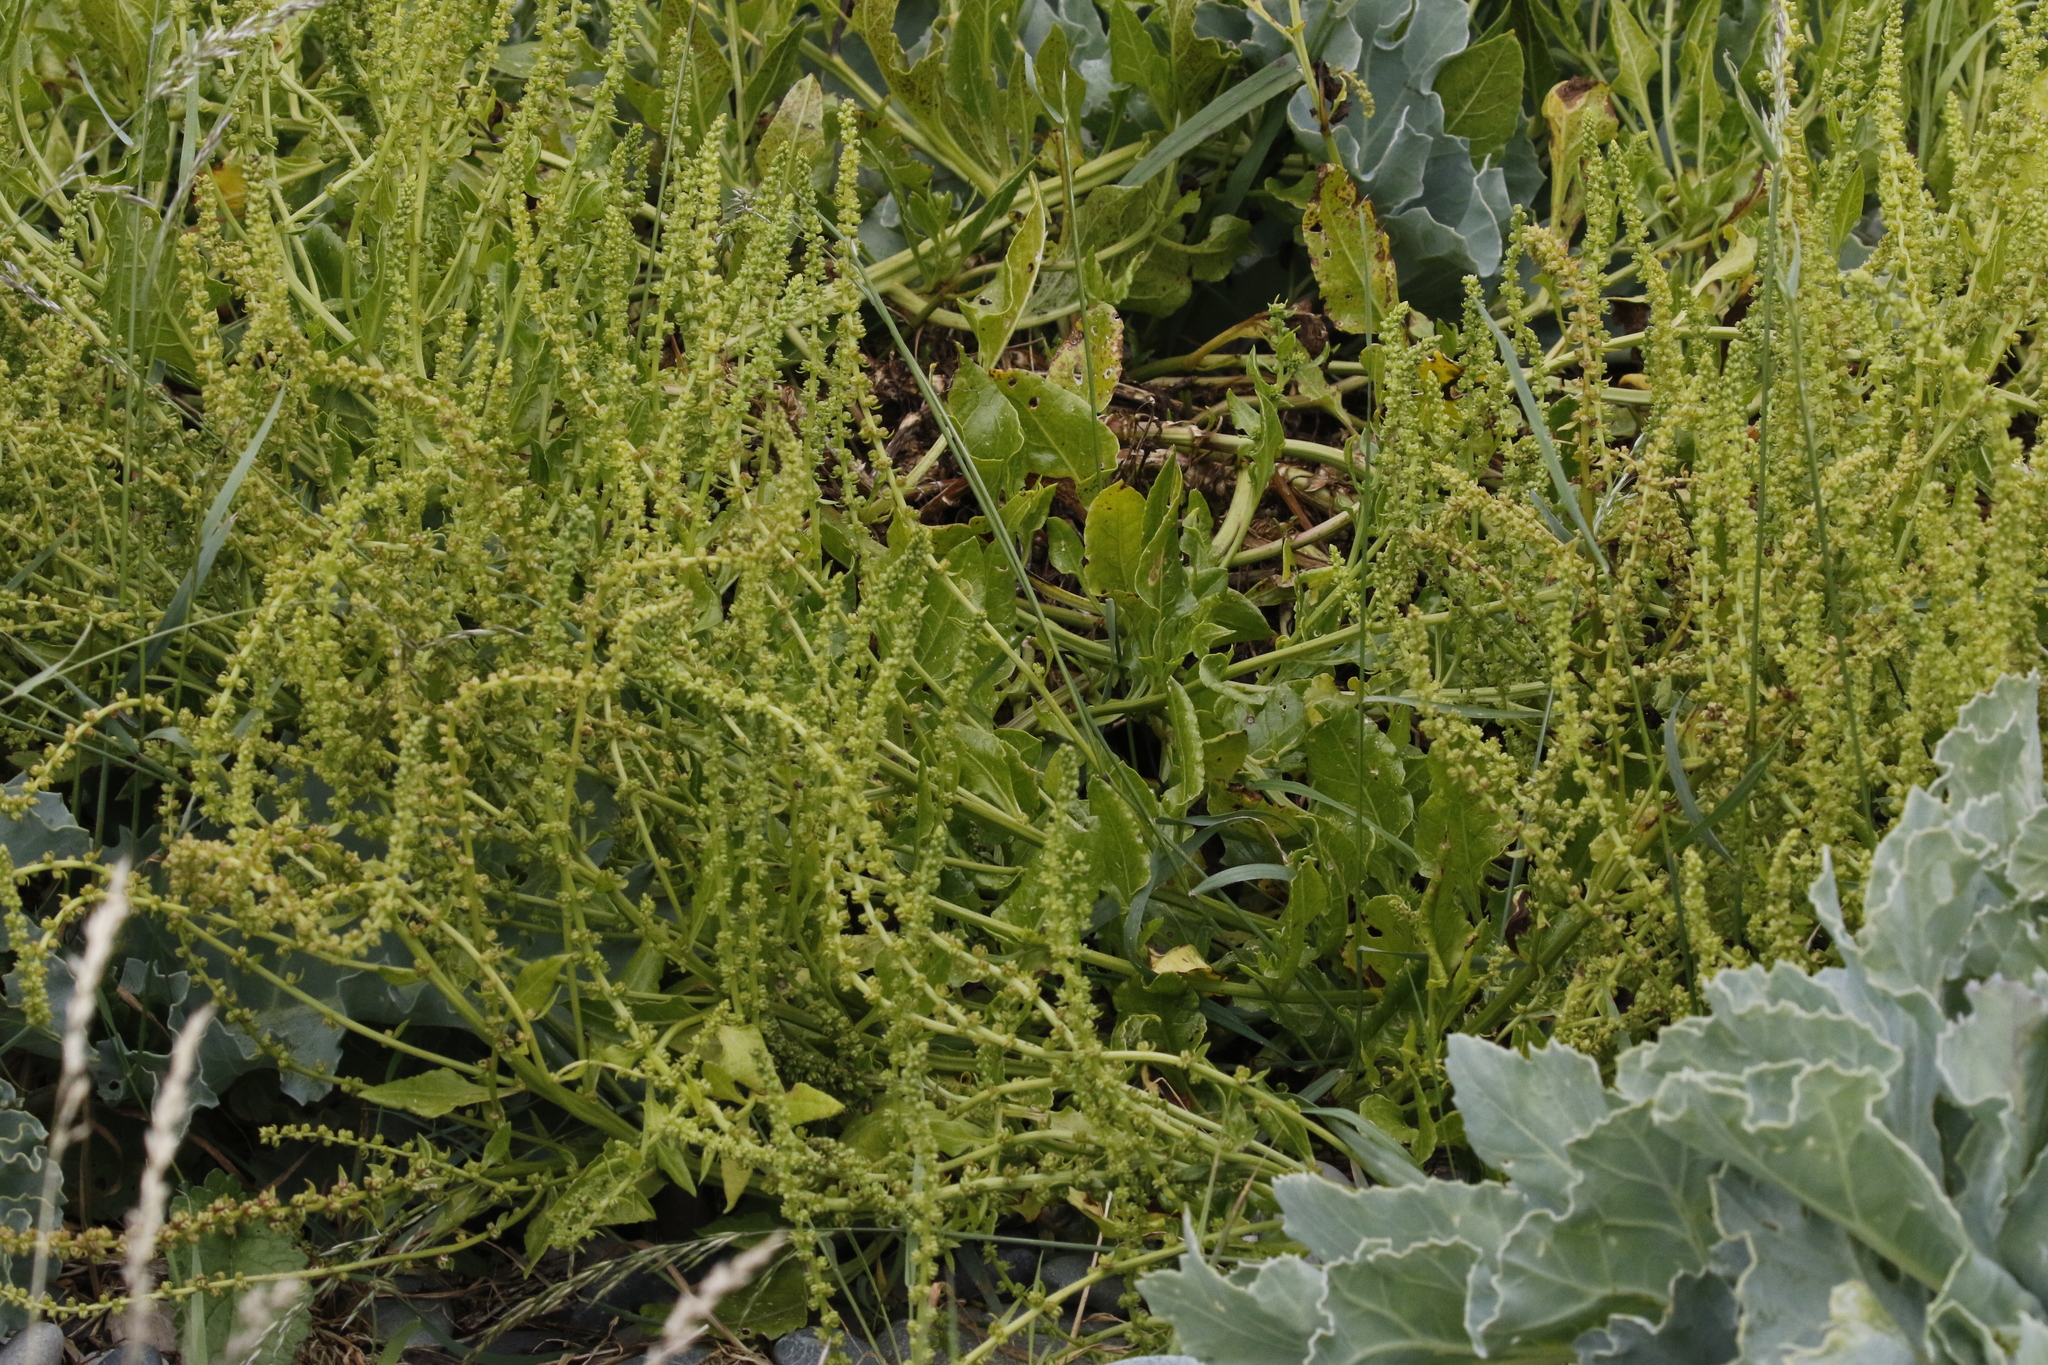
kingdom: Plantae
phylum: Tracheophyta
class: Magnoliopsida
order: Caryophyllales
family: Amaranthaceae
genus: Beta
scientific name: Beta vulgaris
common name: Beet
